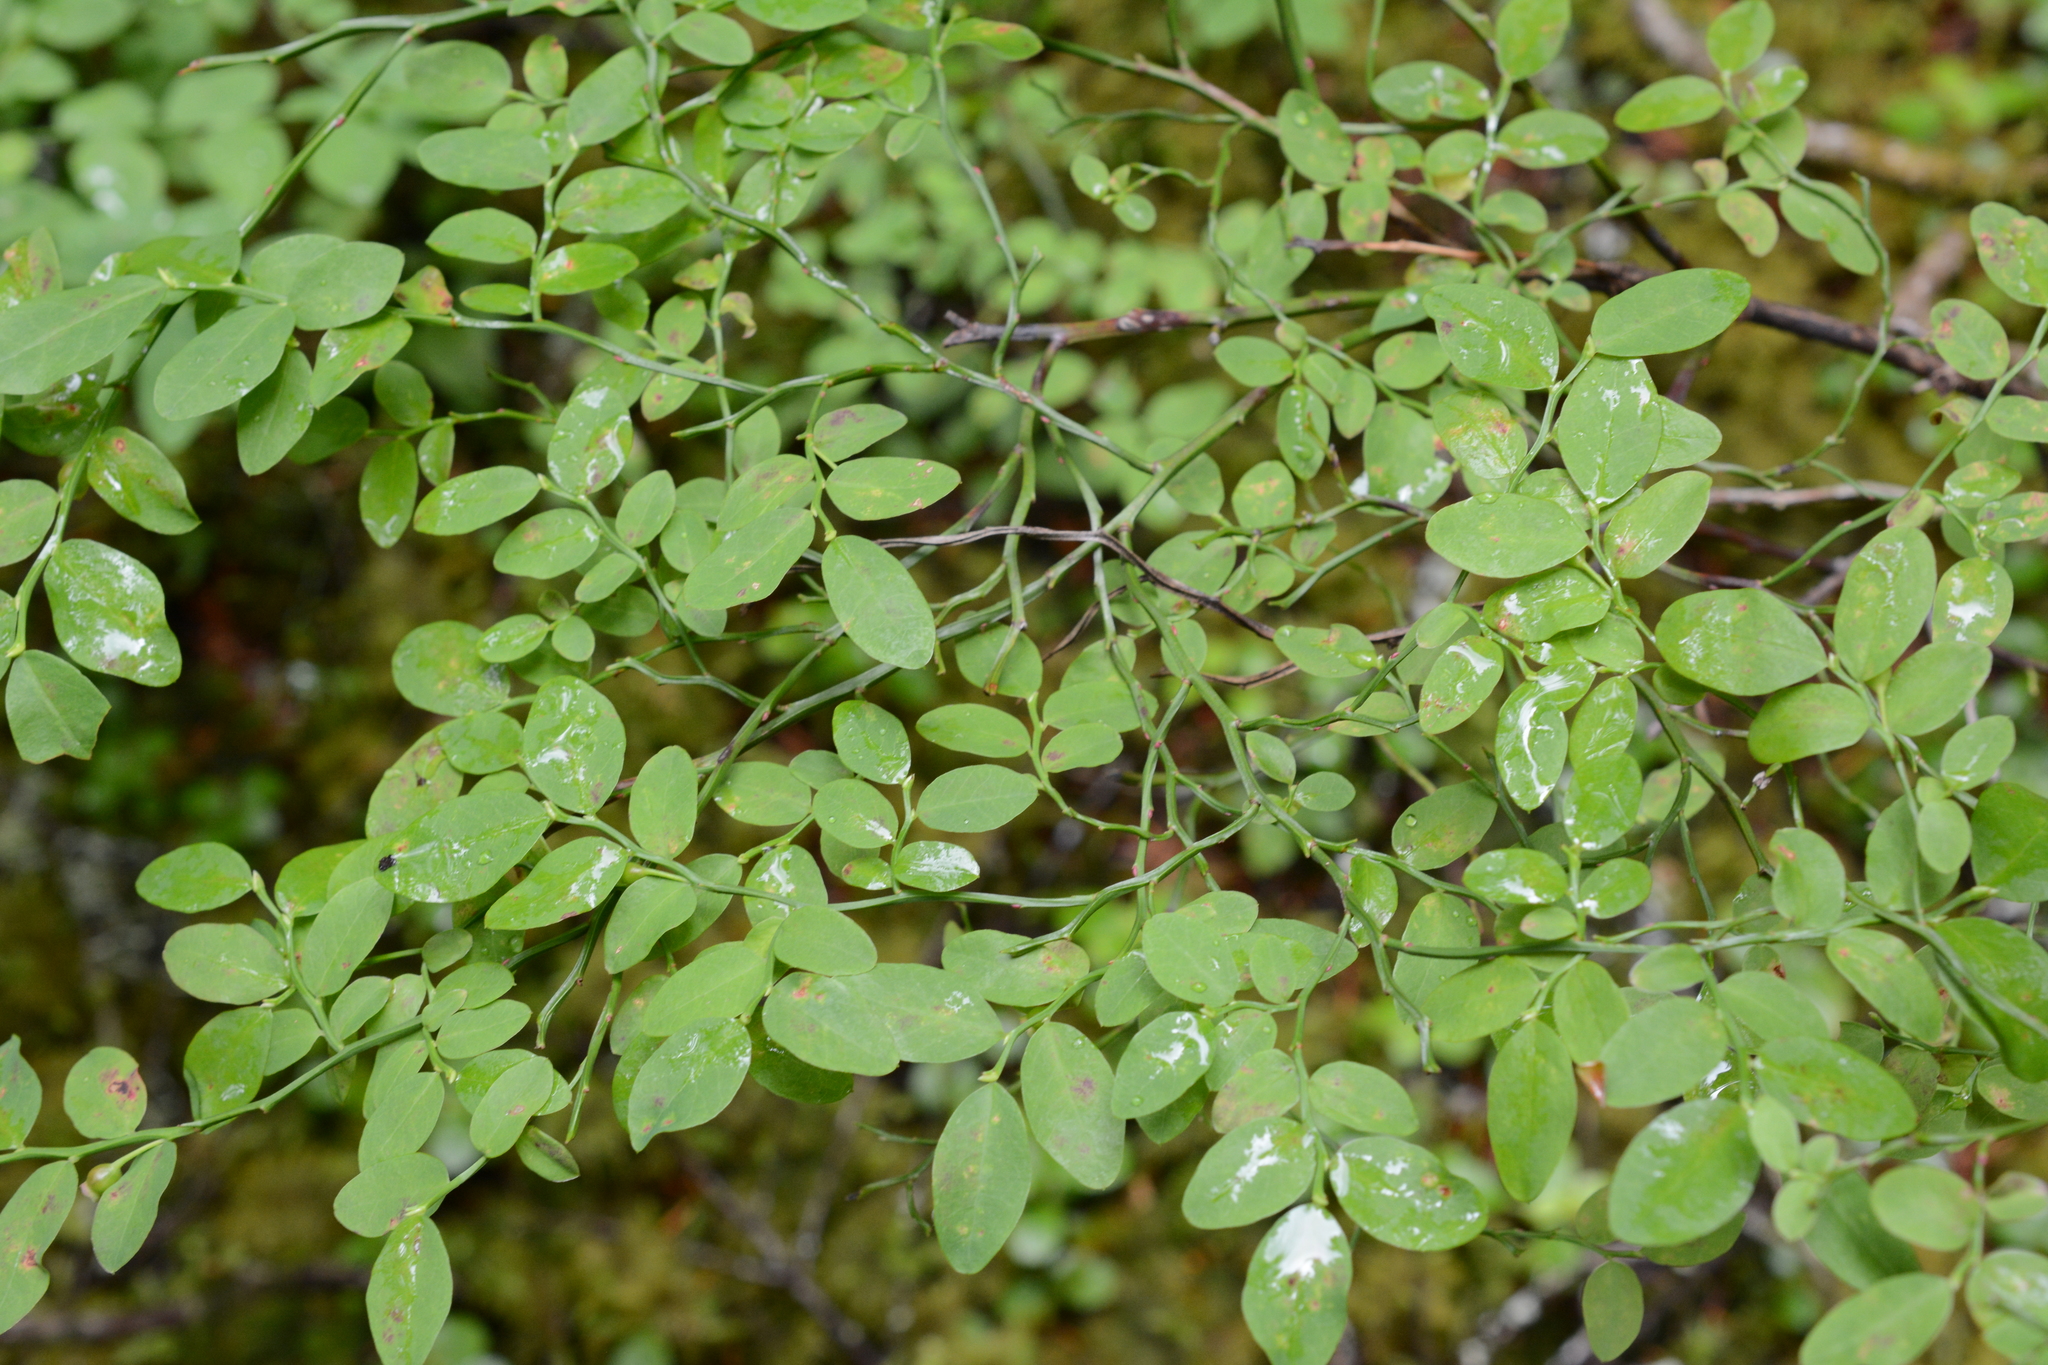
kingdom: Plantae
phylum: Tracheophyta
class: Magnoliopsida
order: Ericales
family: Ericaceae
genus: Vaccinium
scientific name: Vaccinium parvifolium
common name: Red-huckleberry
